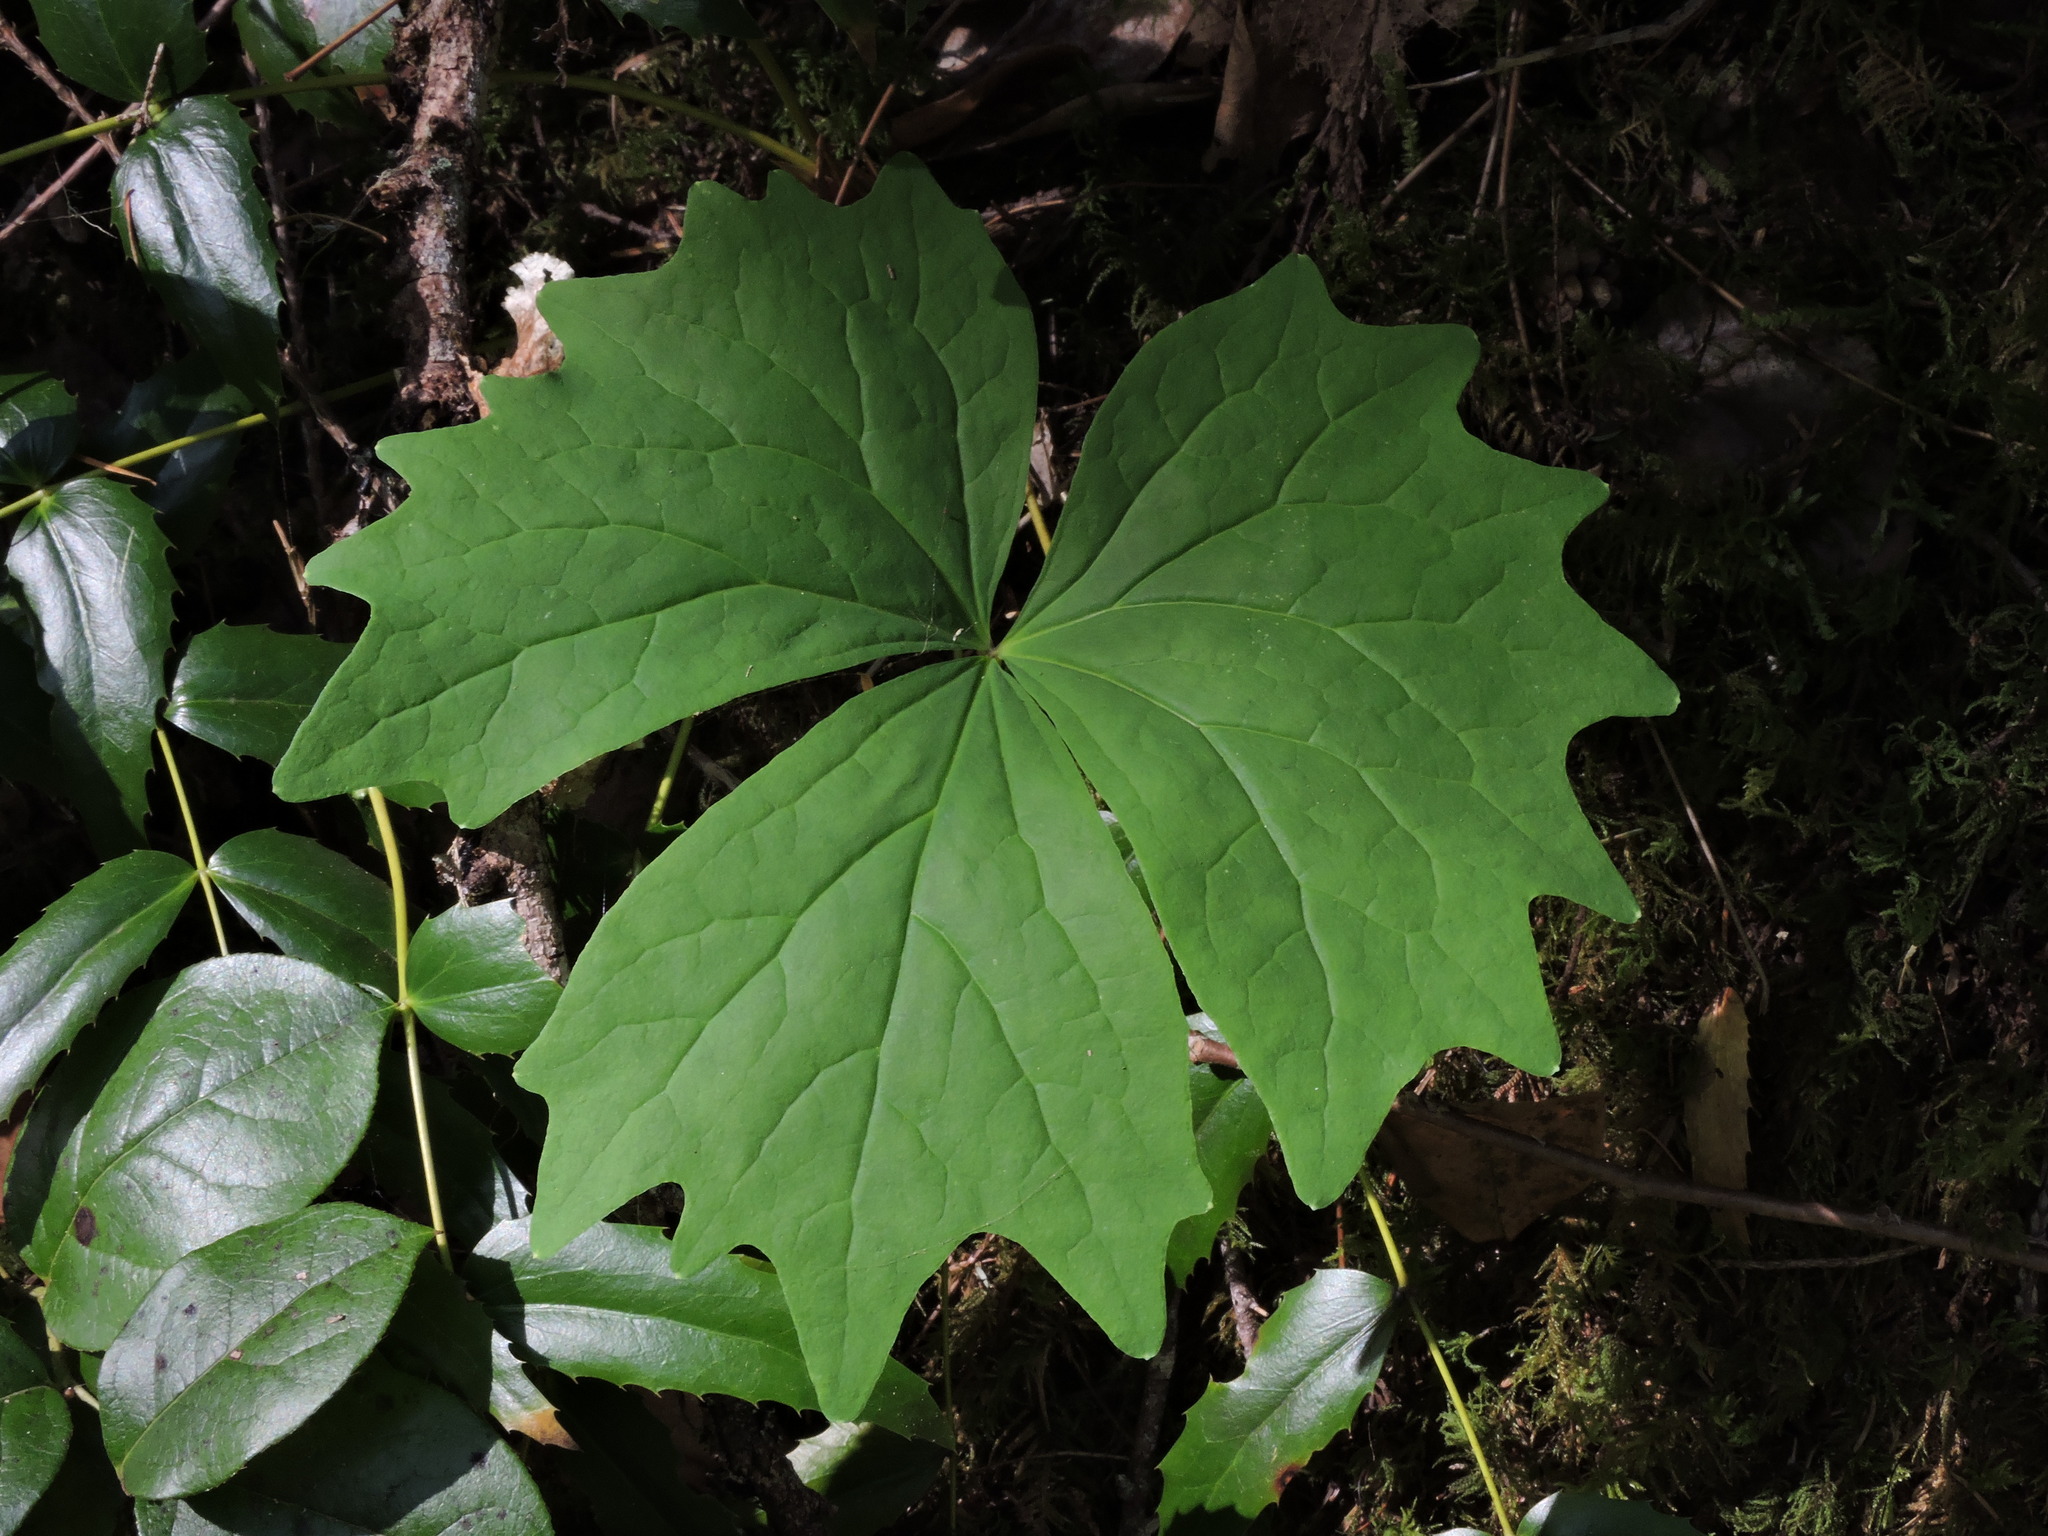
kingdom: Plantae
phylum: Tracheophyta
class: Magnoliopsida
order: Ranunculales
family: Berberidaceae
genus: Achlys
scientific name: Achlys triphylla
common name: Vanilla-leaf
